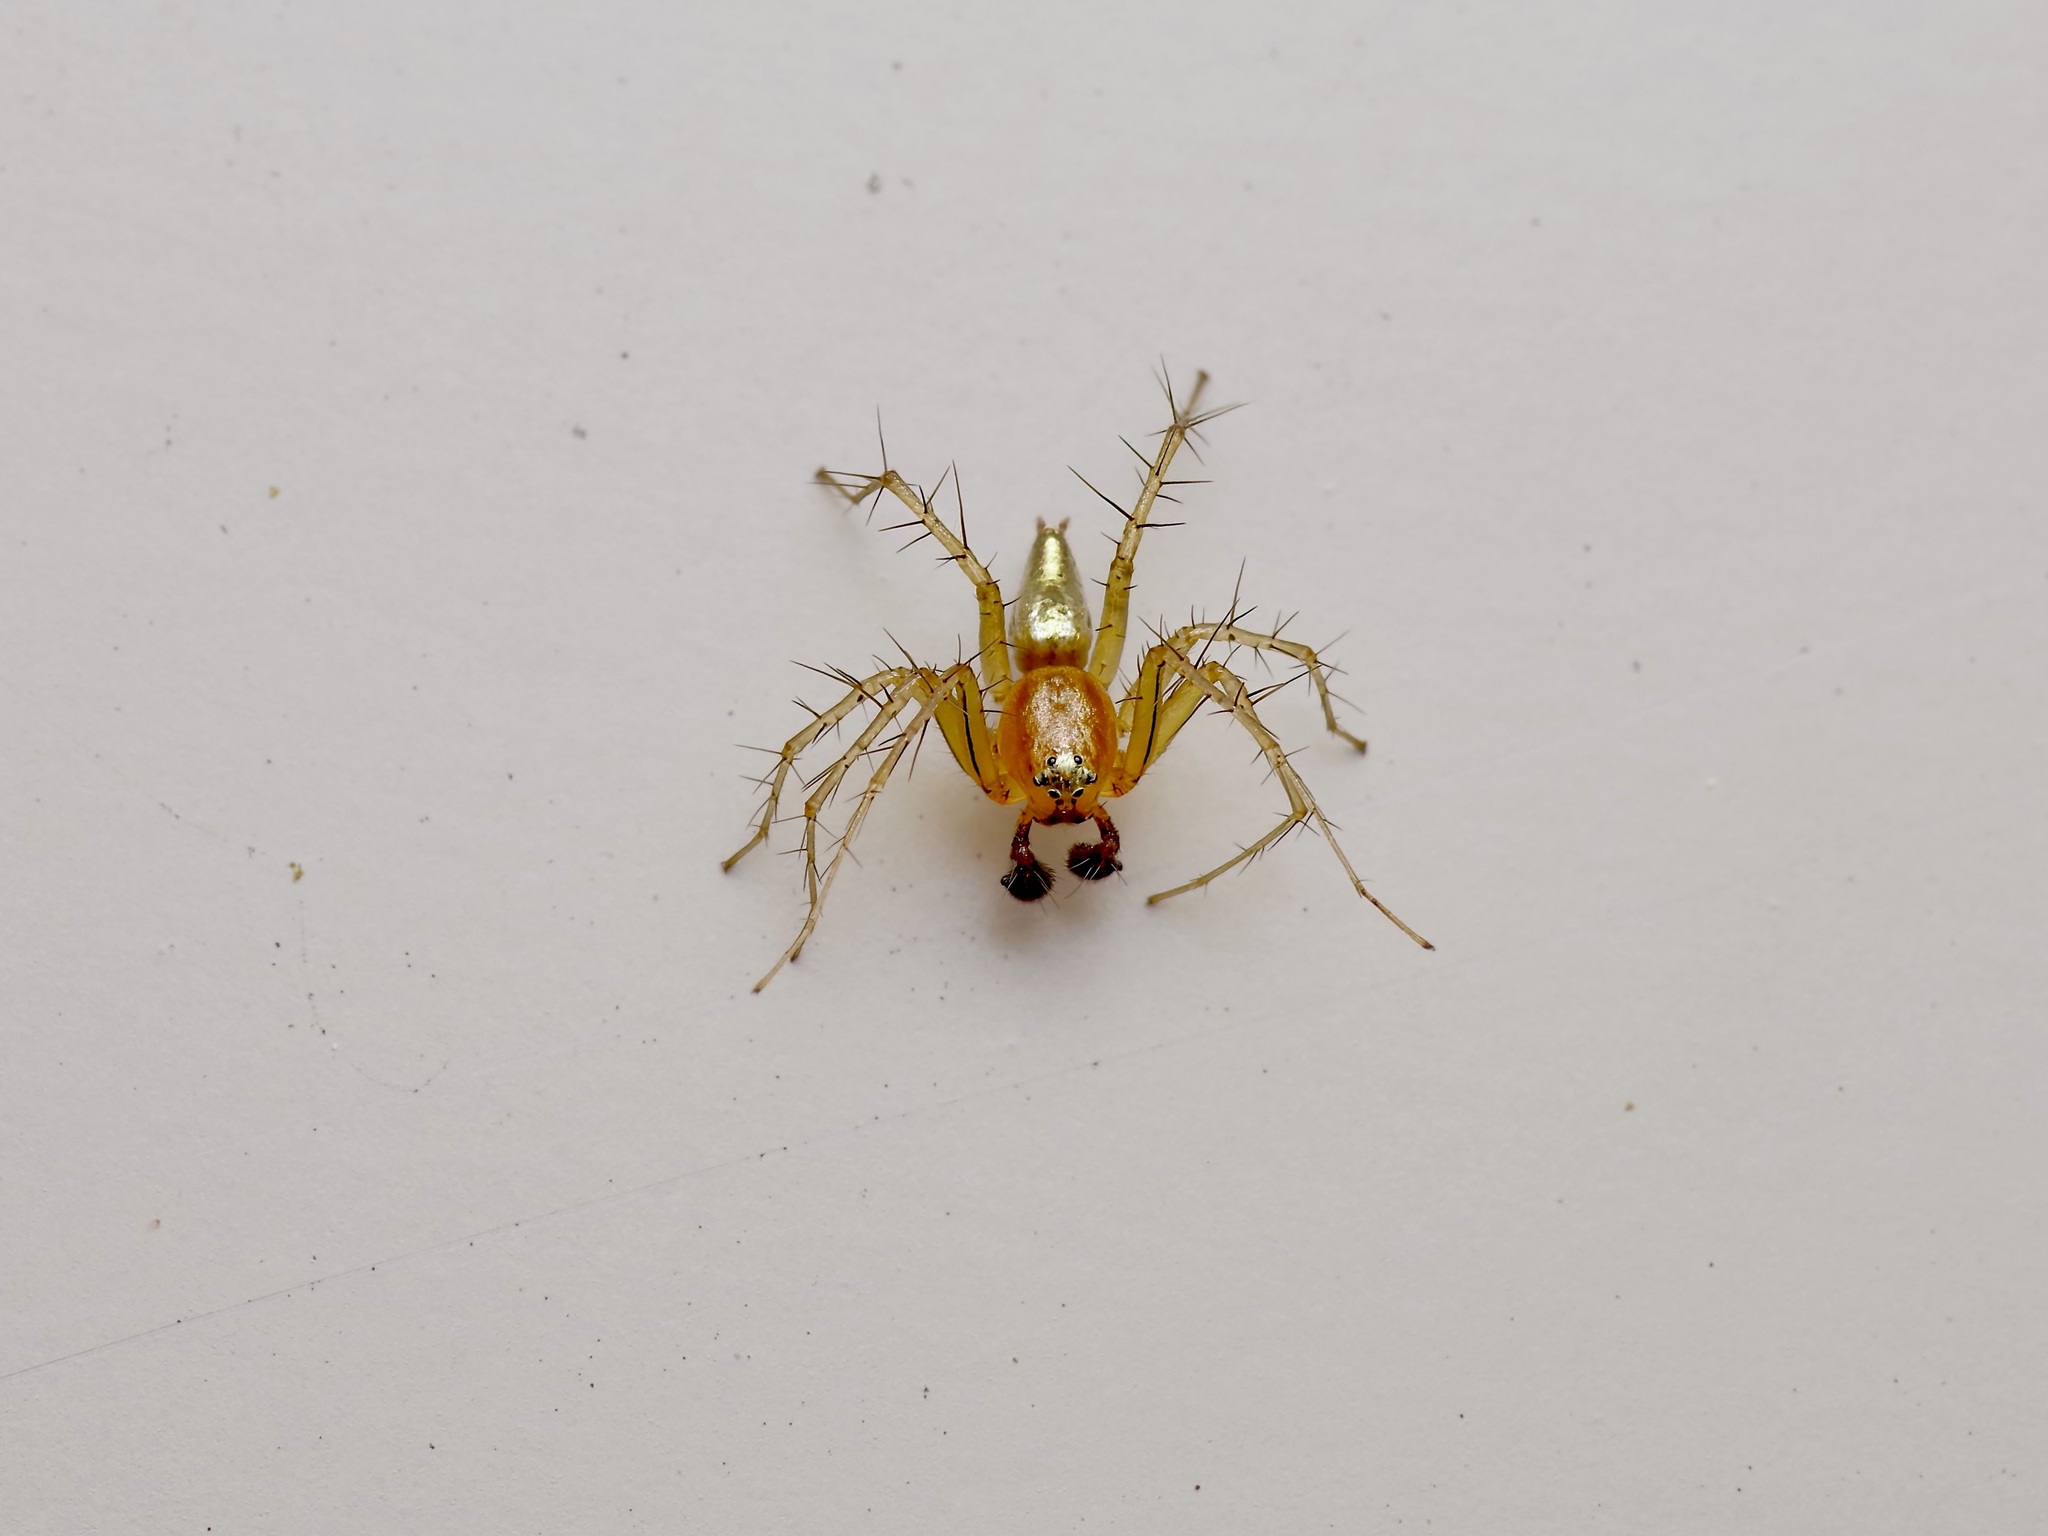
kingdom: Animalia
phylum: Arthropoda
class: Arachnida
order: Araneae
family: Oxyopidae
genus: Oxyopes
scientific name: Oxyopes salticus
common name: Lynx spiders
